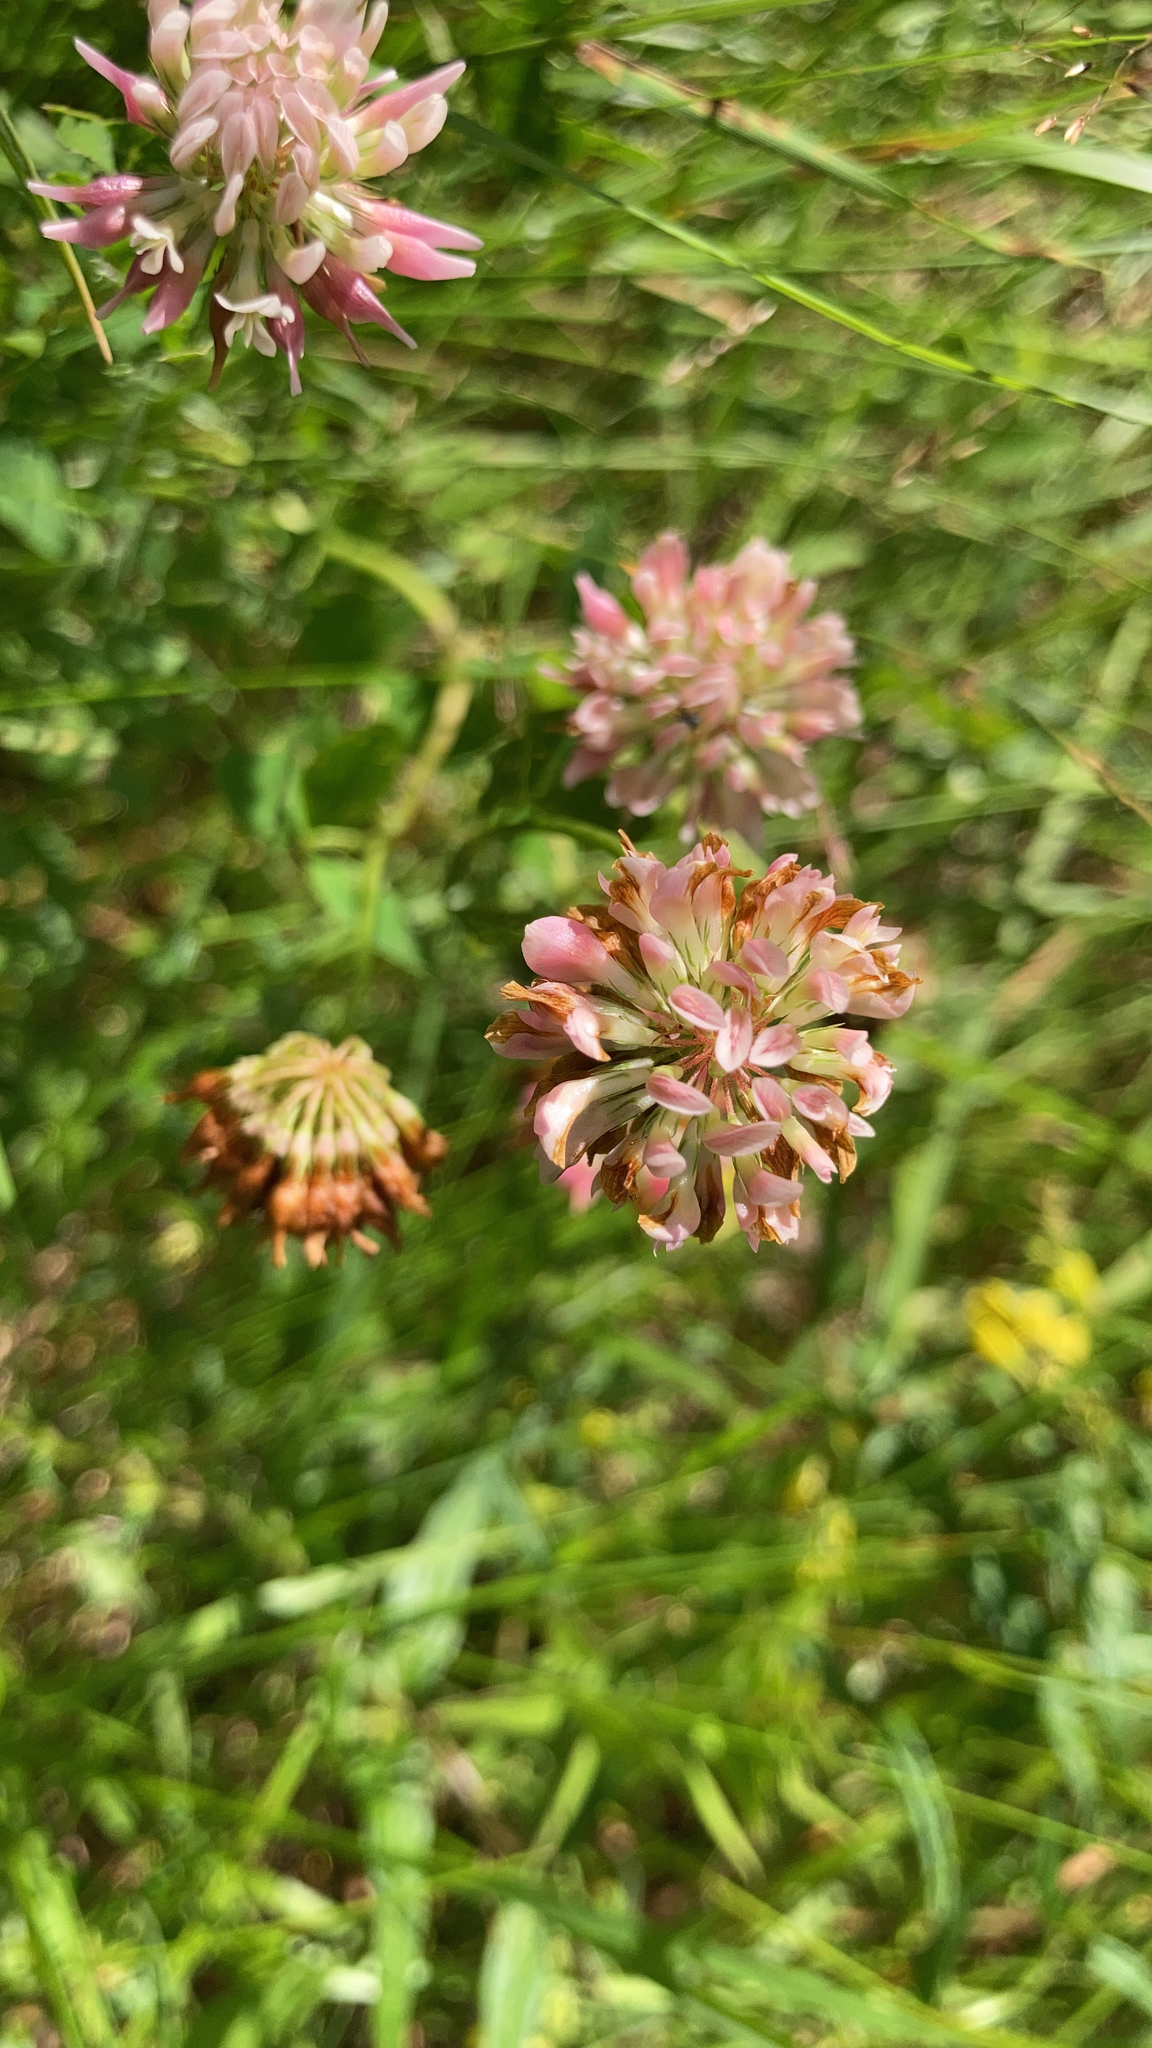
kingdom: Plantae
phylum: Tracheophyta
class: Magnoliopsida
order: Fabales
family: Fabaceae
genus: Trifolium
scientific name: Trifolium hybridum
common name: Alsike clover
